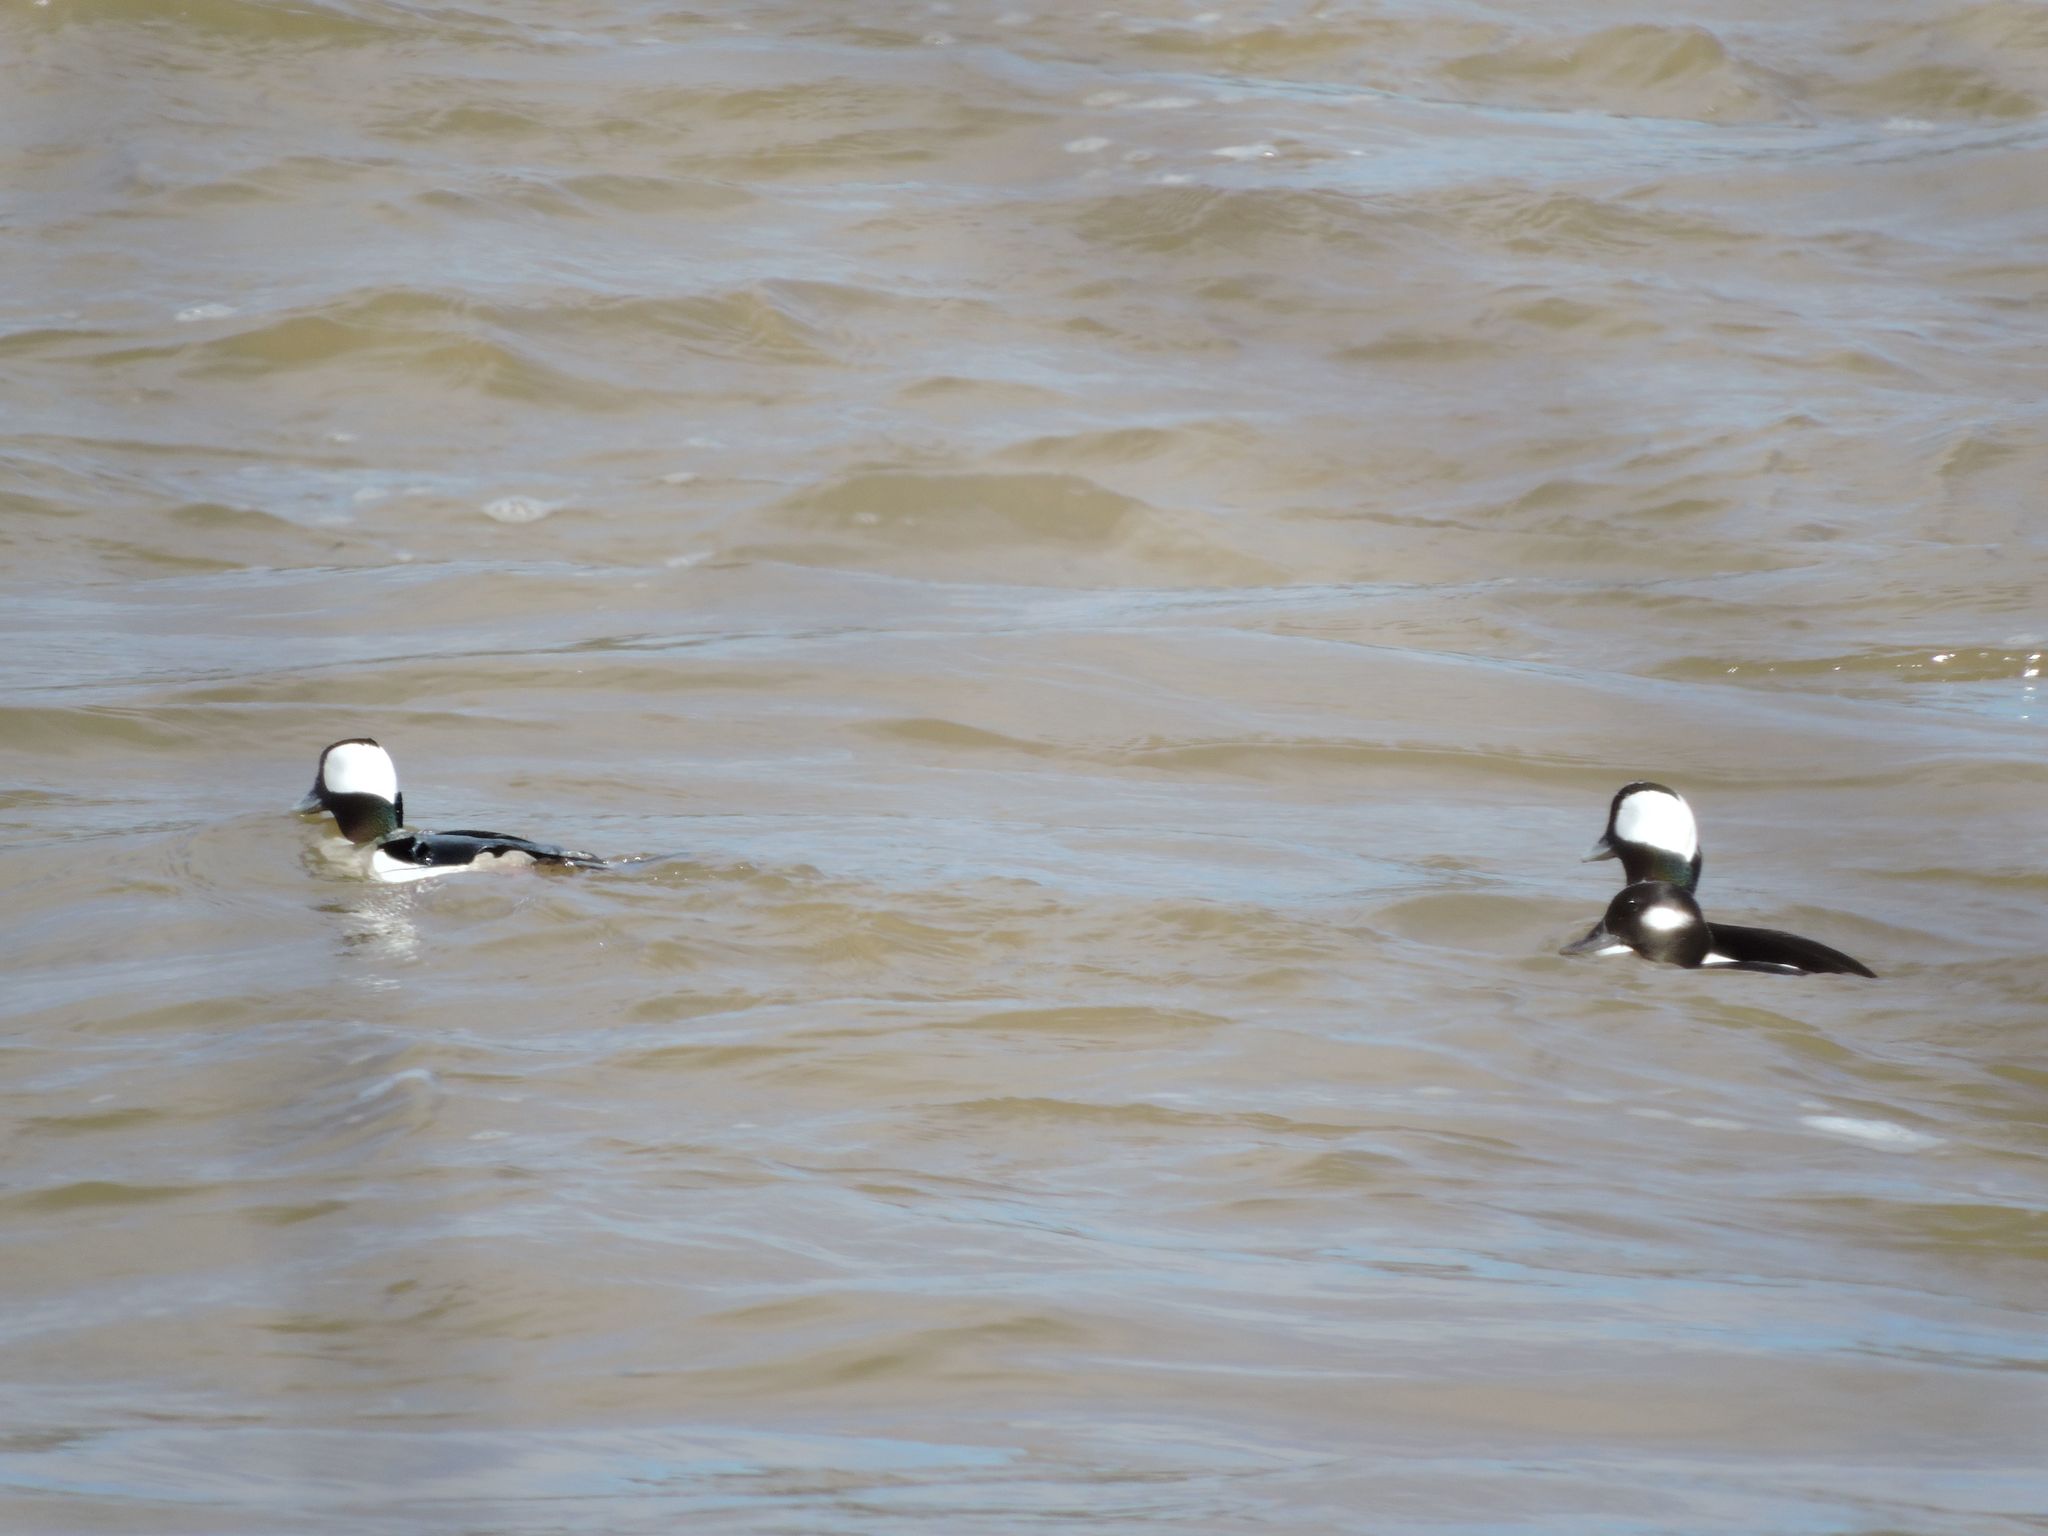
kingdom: Animalia
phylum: Chordata
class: Aves
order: Anseriformes
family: Anatidae
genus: Bucephala
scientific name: Bucephala albeola
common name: Bufflehead
